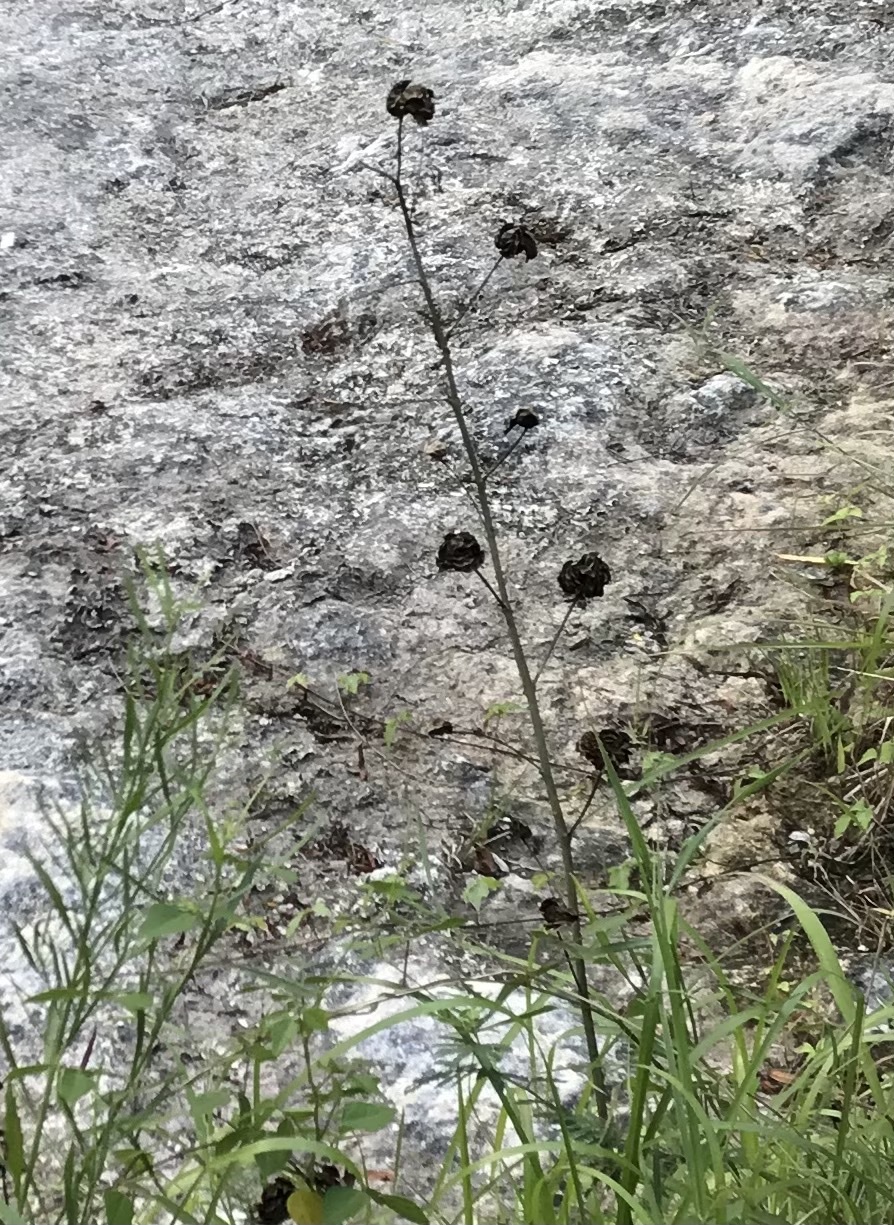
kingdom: Plantae
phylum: Tracheophyta
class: Magnoliopsida
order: Fabales
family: Fabaceae
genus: Desmanthus
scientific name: Desmanthus illinoensis
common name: Illinois bundle-flower
